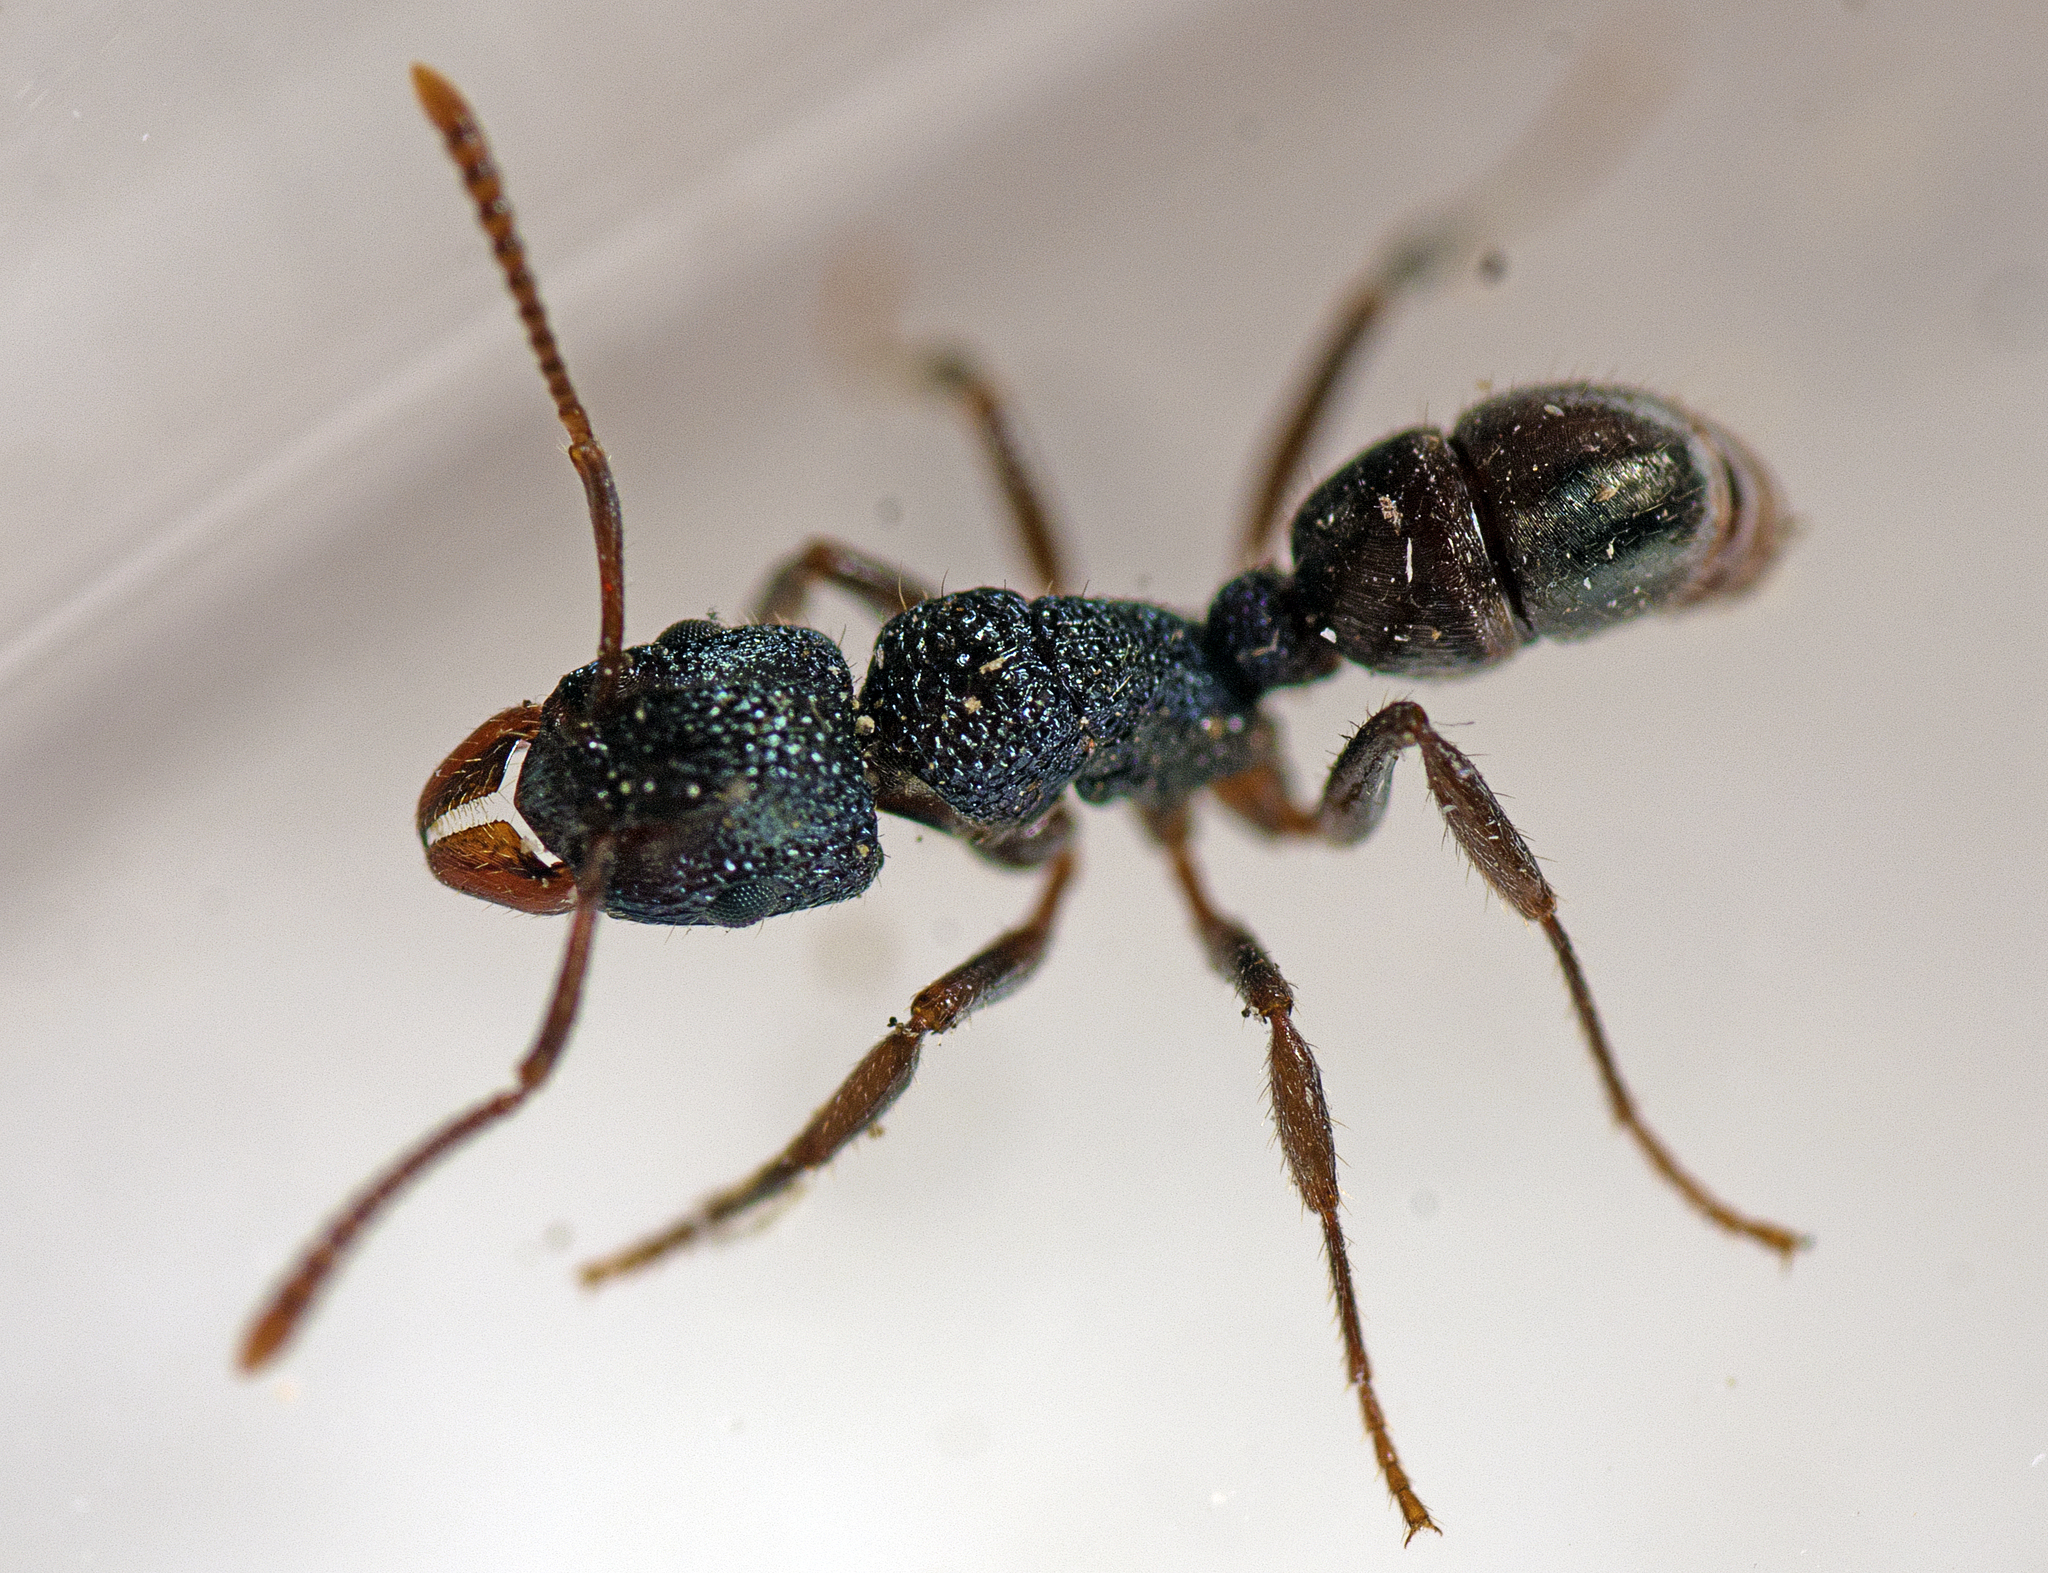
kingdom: Animalia
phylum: Arthropoda
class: Insecta
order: Hymenoptera
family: Formicidae
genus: Rhytidoponera
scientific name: Rhytidoponera victoriae
